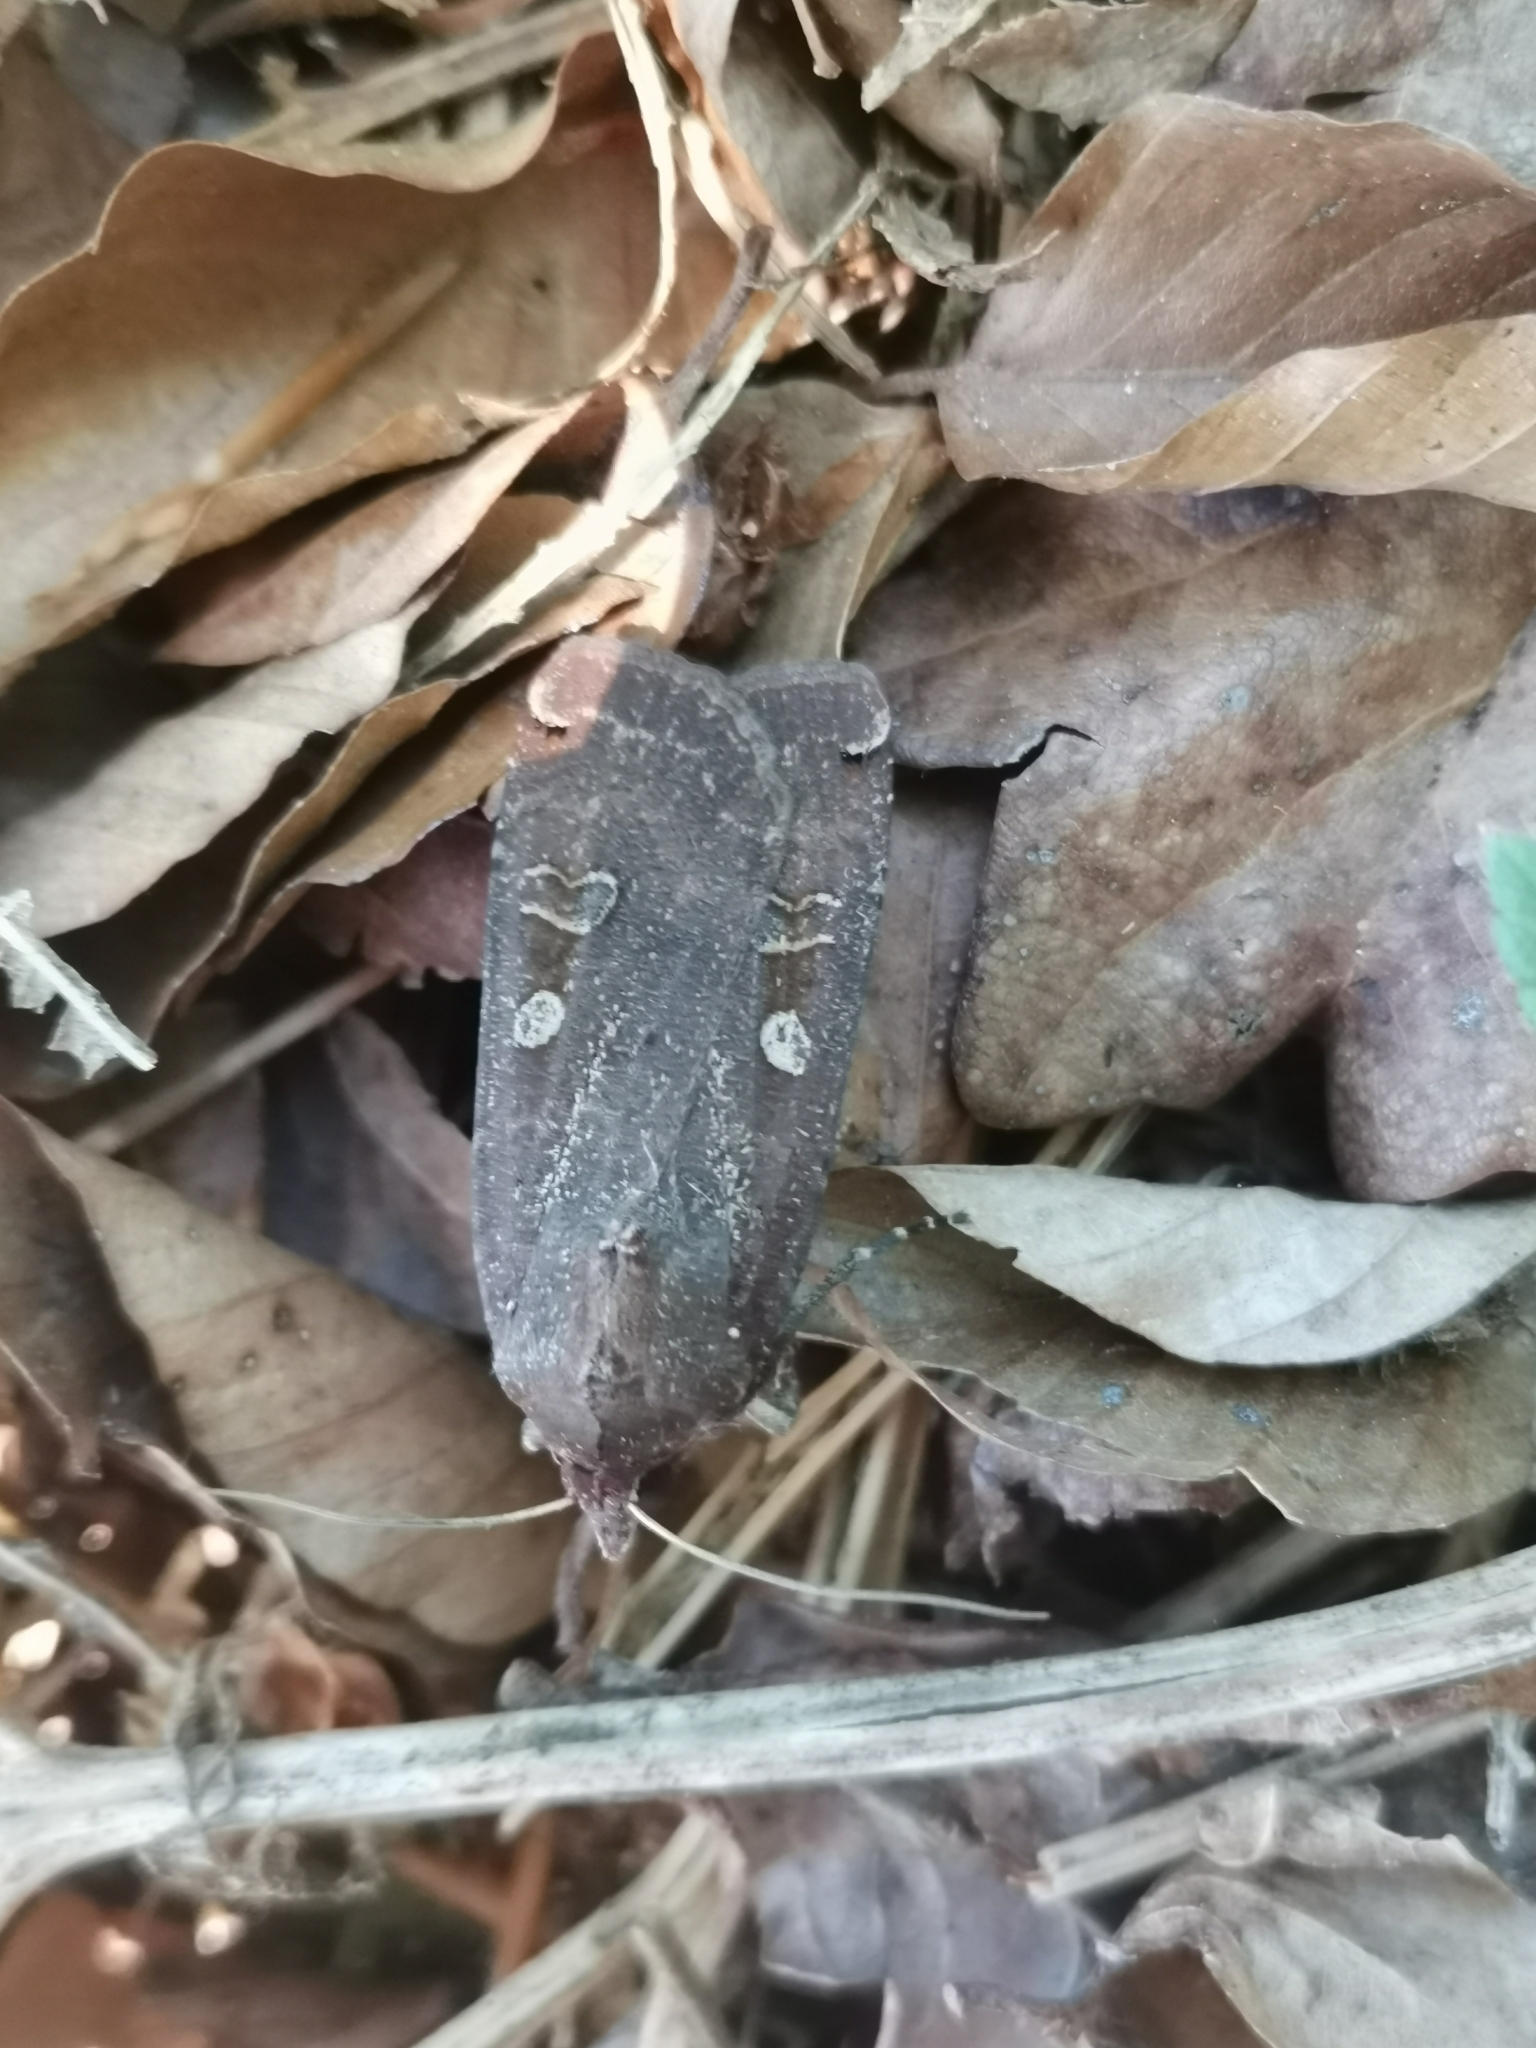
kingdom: Animalia
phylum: Arthropoda
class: Insecta
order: Lepidoptera
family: Noctuidae
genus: Noctua
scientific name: Noctua pronuba
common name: Large yellow underwing
